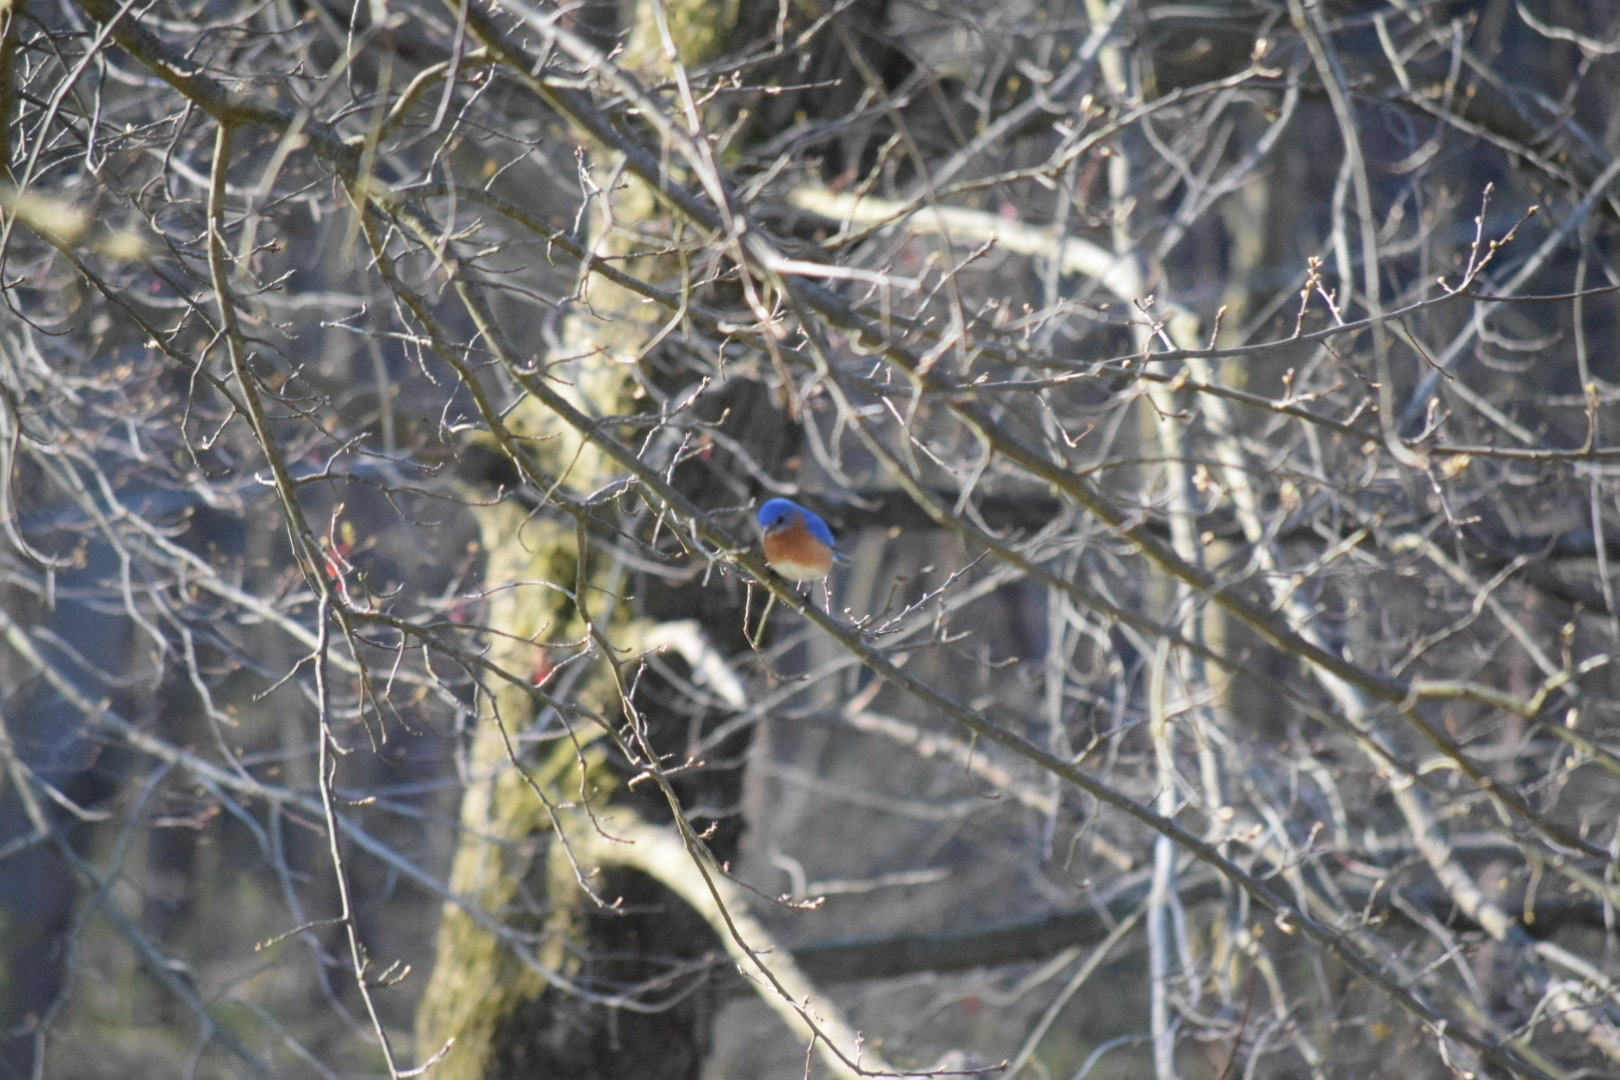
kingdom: Animalia
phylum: Chordata
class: Aves
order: Passeriformes
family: Turdidae
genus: Sialia
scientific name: Sialia sialis
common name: Eastern bluebird
